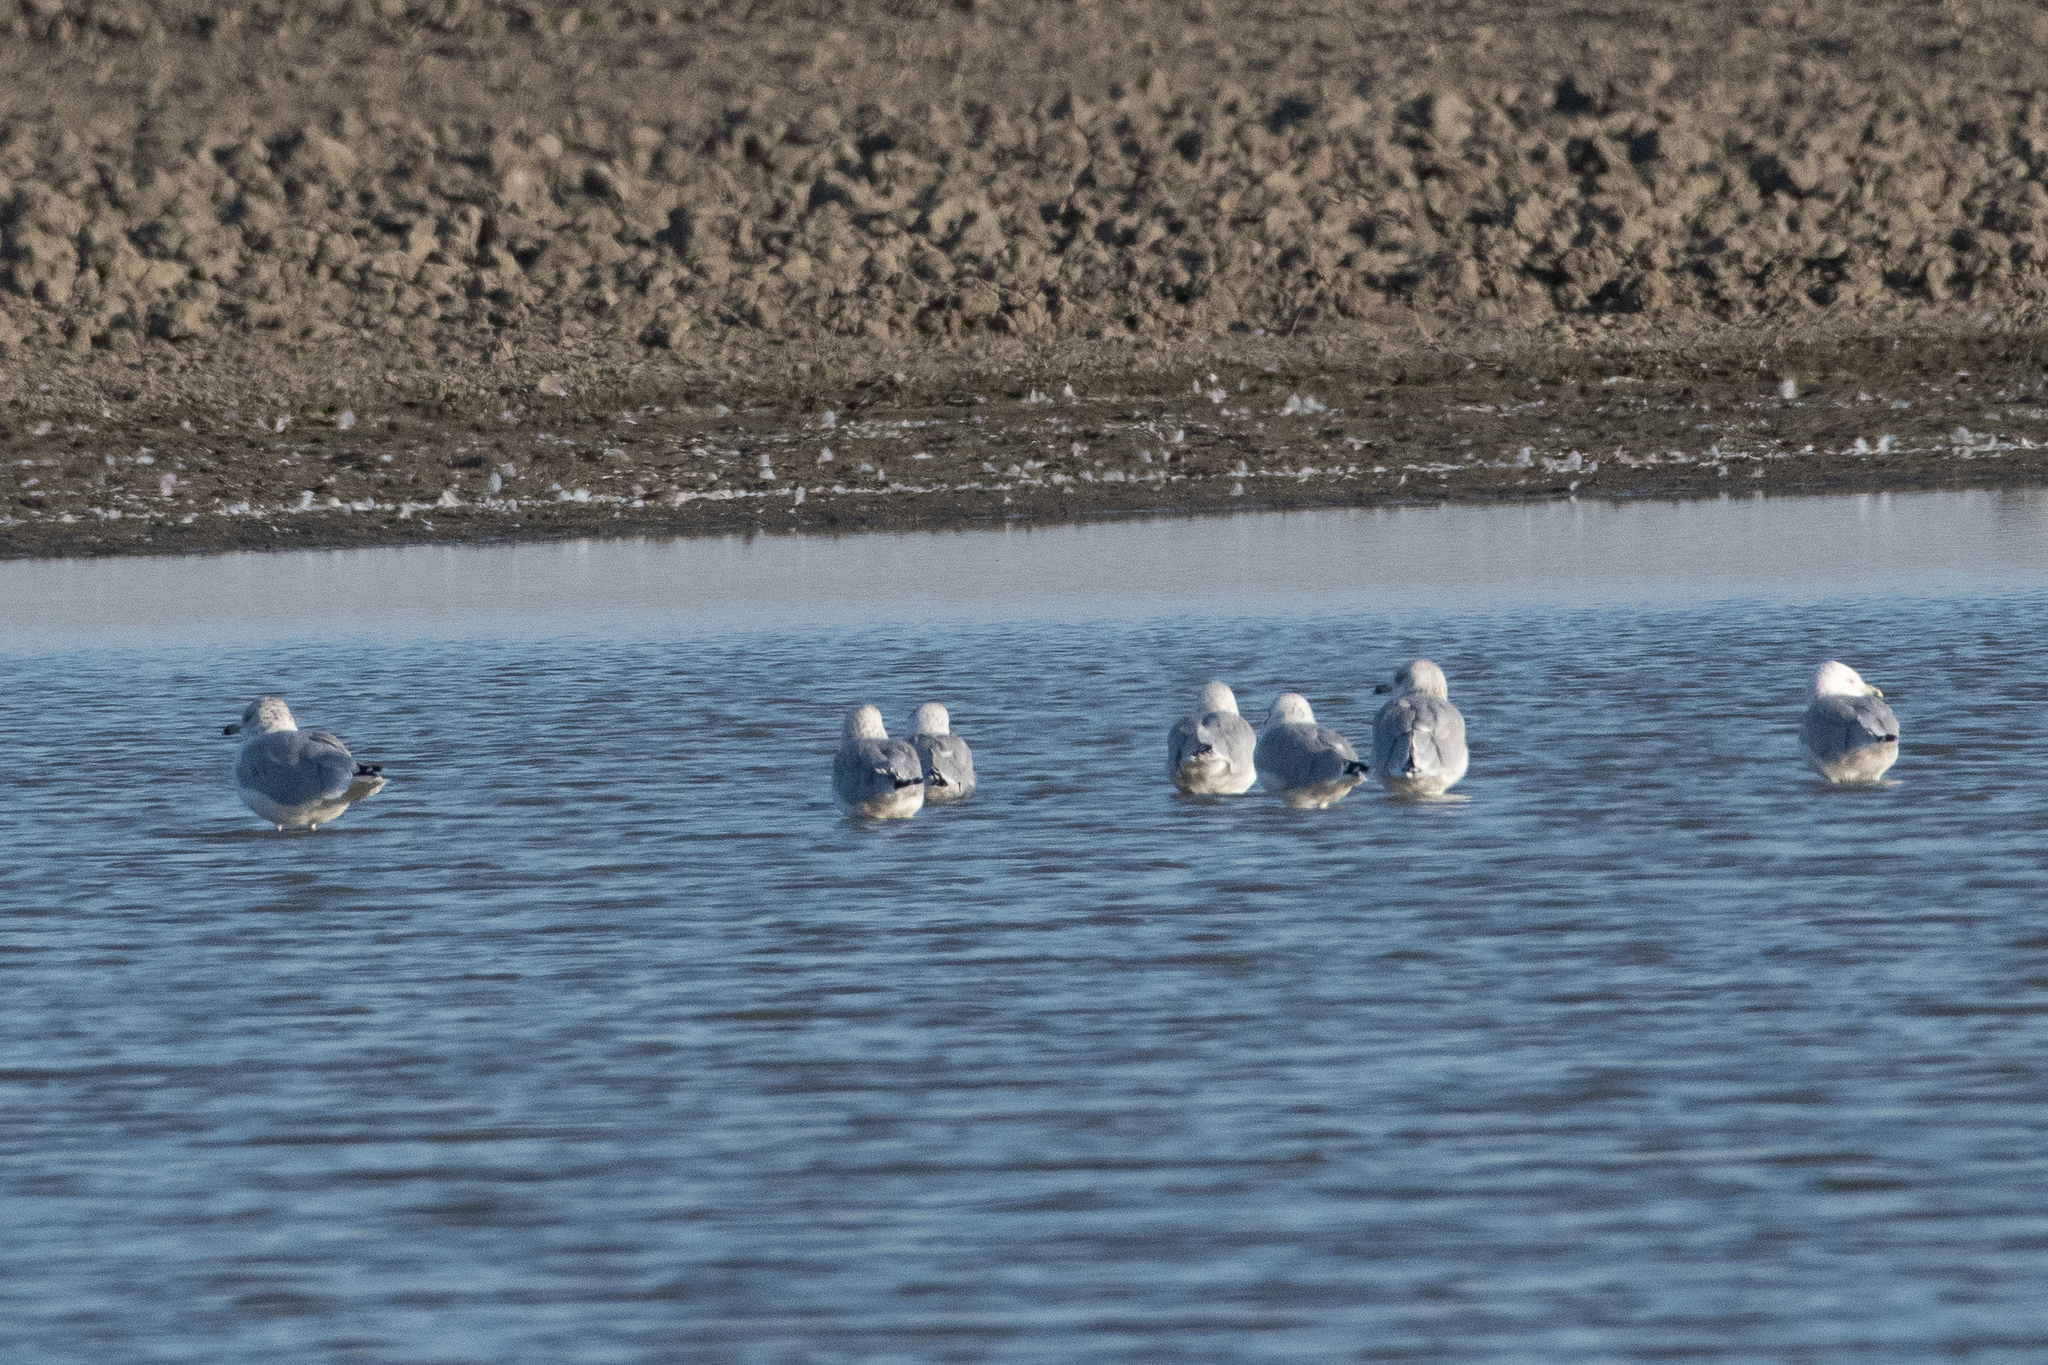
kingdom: Animalia
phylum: Chordata
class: Aves
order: Charadriiformes
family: Laridae
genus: Larus
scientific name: Larus delawarensis
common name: Ring-billed gull
